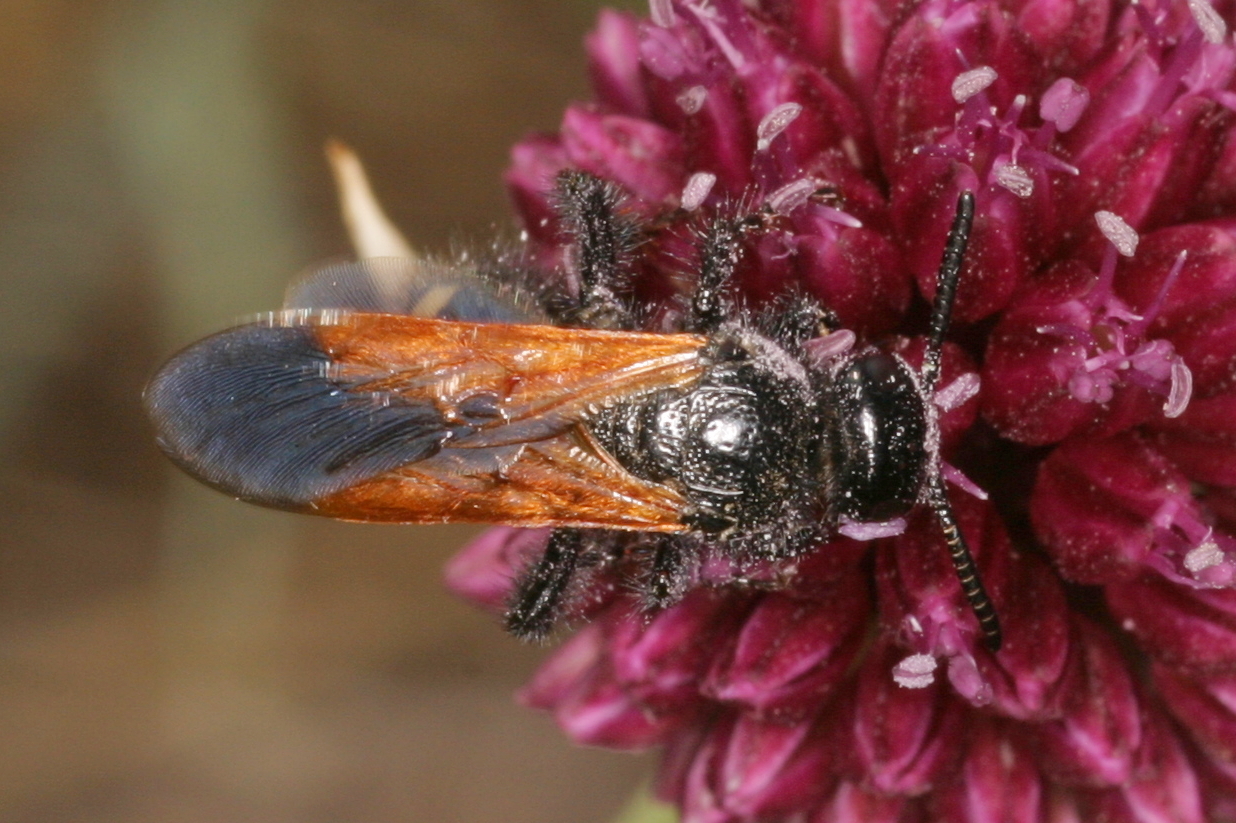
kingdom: Animalia
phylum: Arthropoda
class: Insecta
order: Hymenoptera
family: Vespidae
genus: Vespa
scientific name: Vespa sexmaculata
